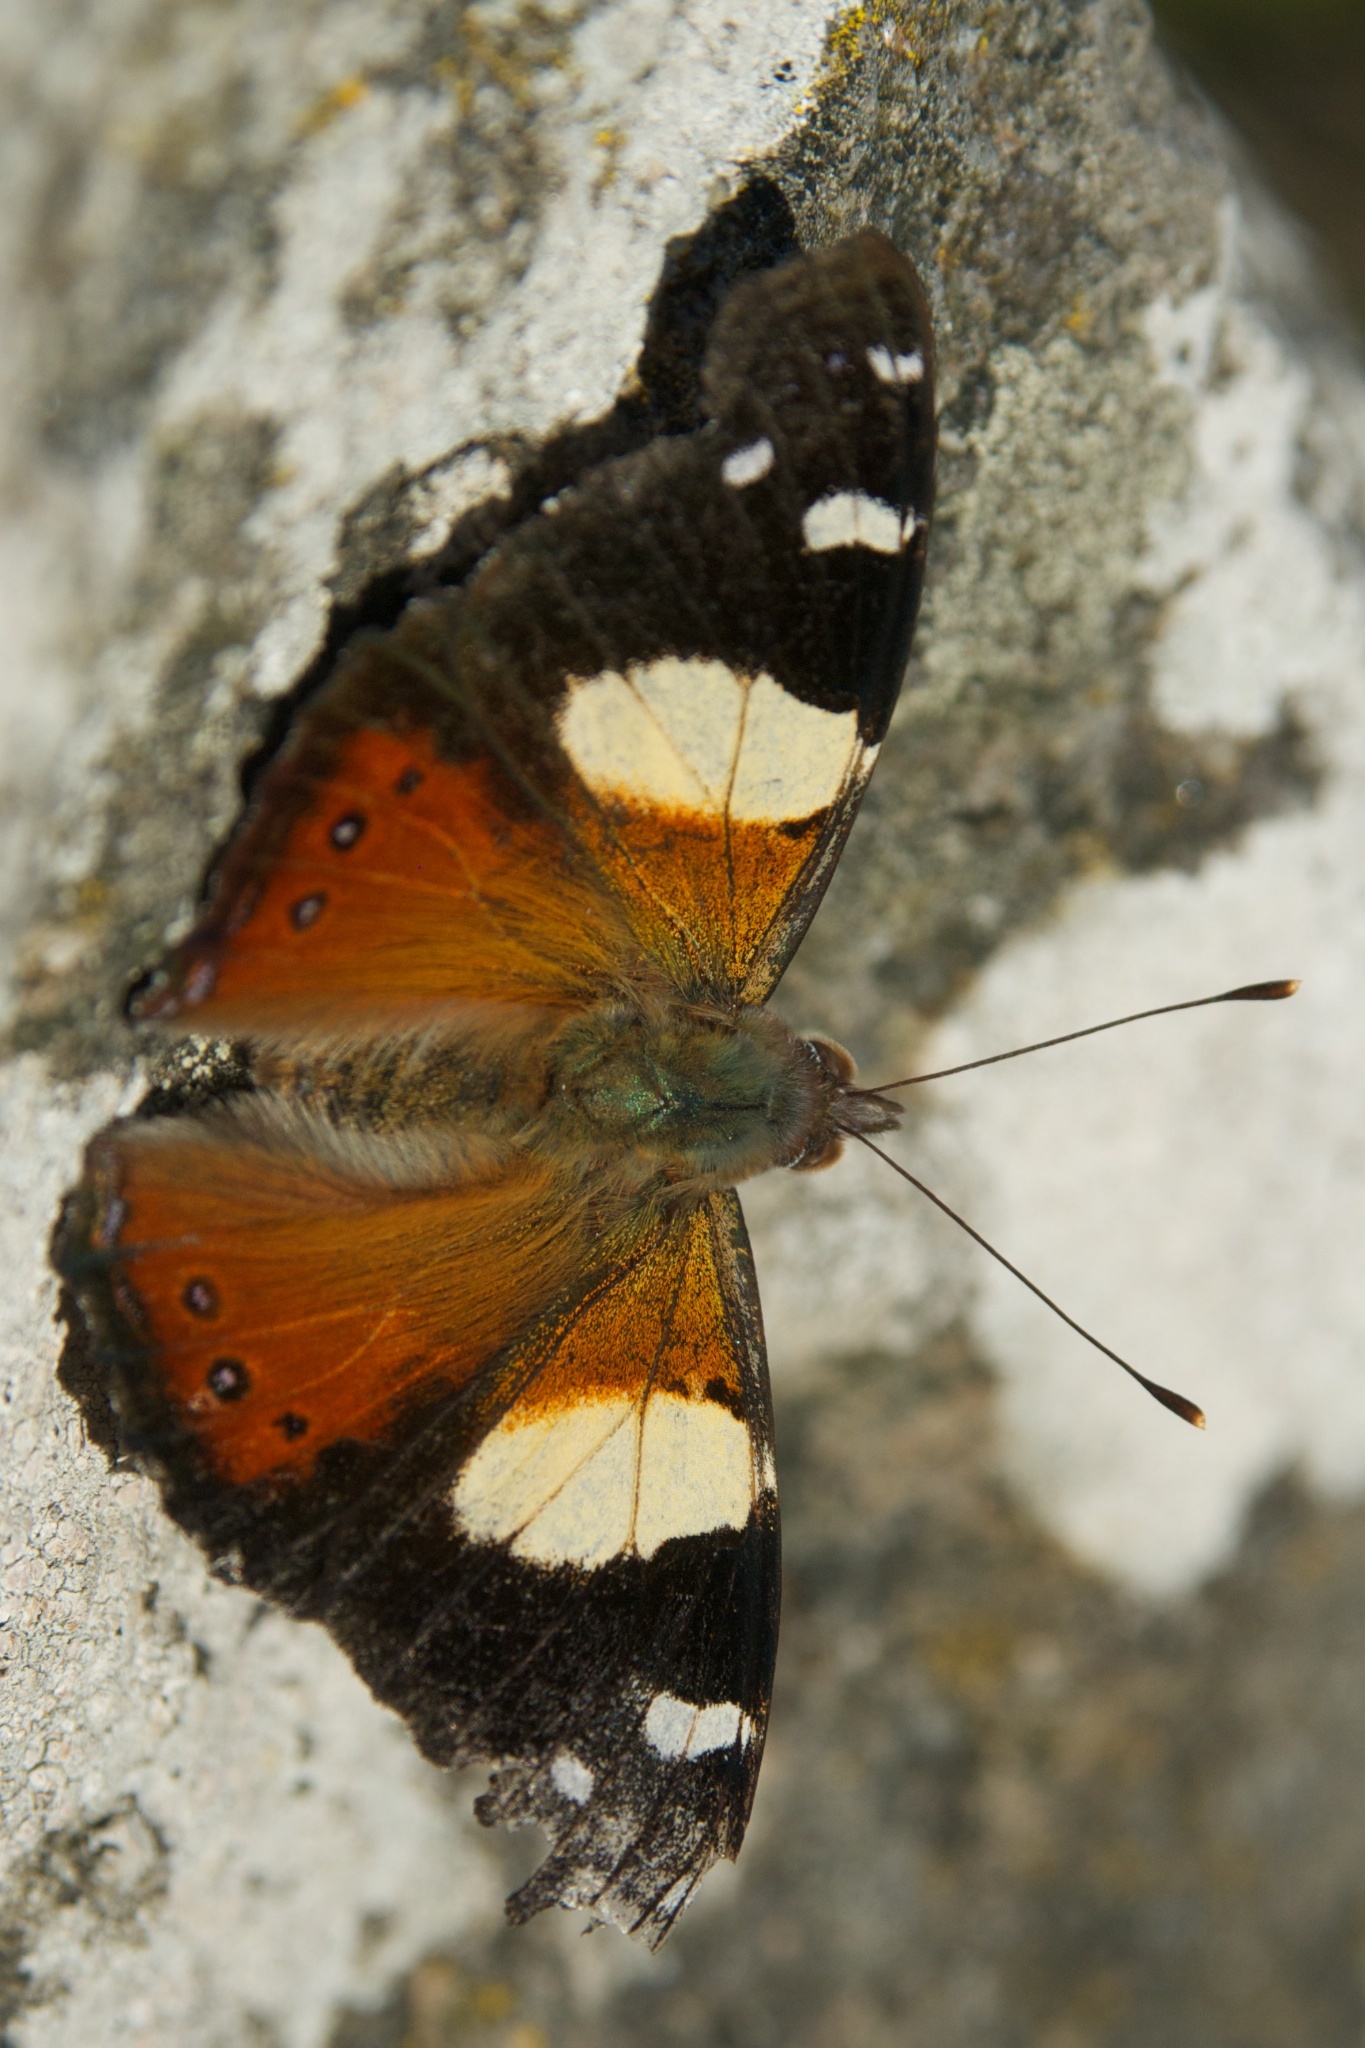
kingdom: Animalia
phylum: Arthropoda
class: Insecta
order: Lepidoptera
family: Nymphalidae
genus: Vanessa
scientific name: Vanessa itea
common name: Yellow admiral
